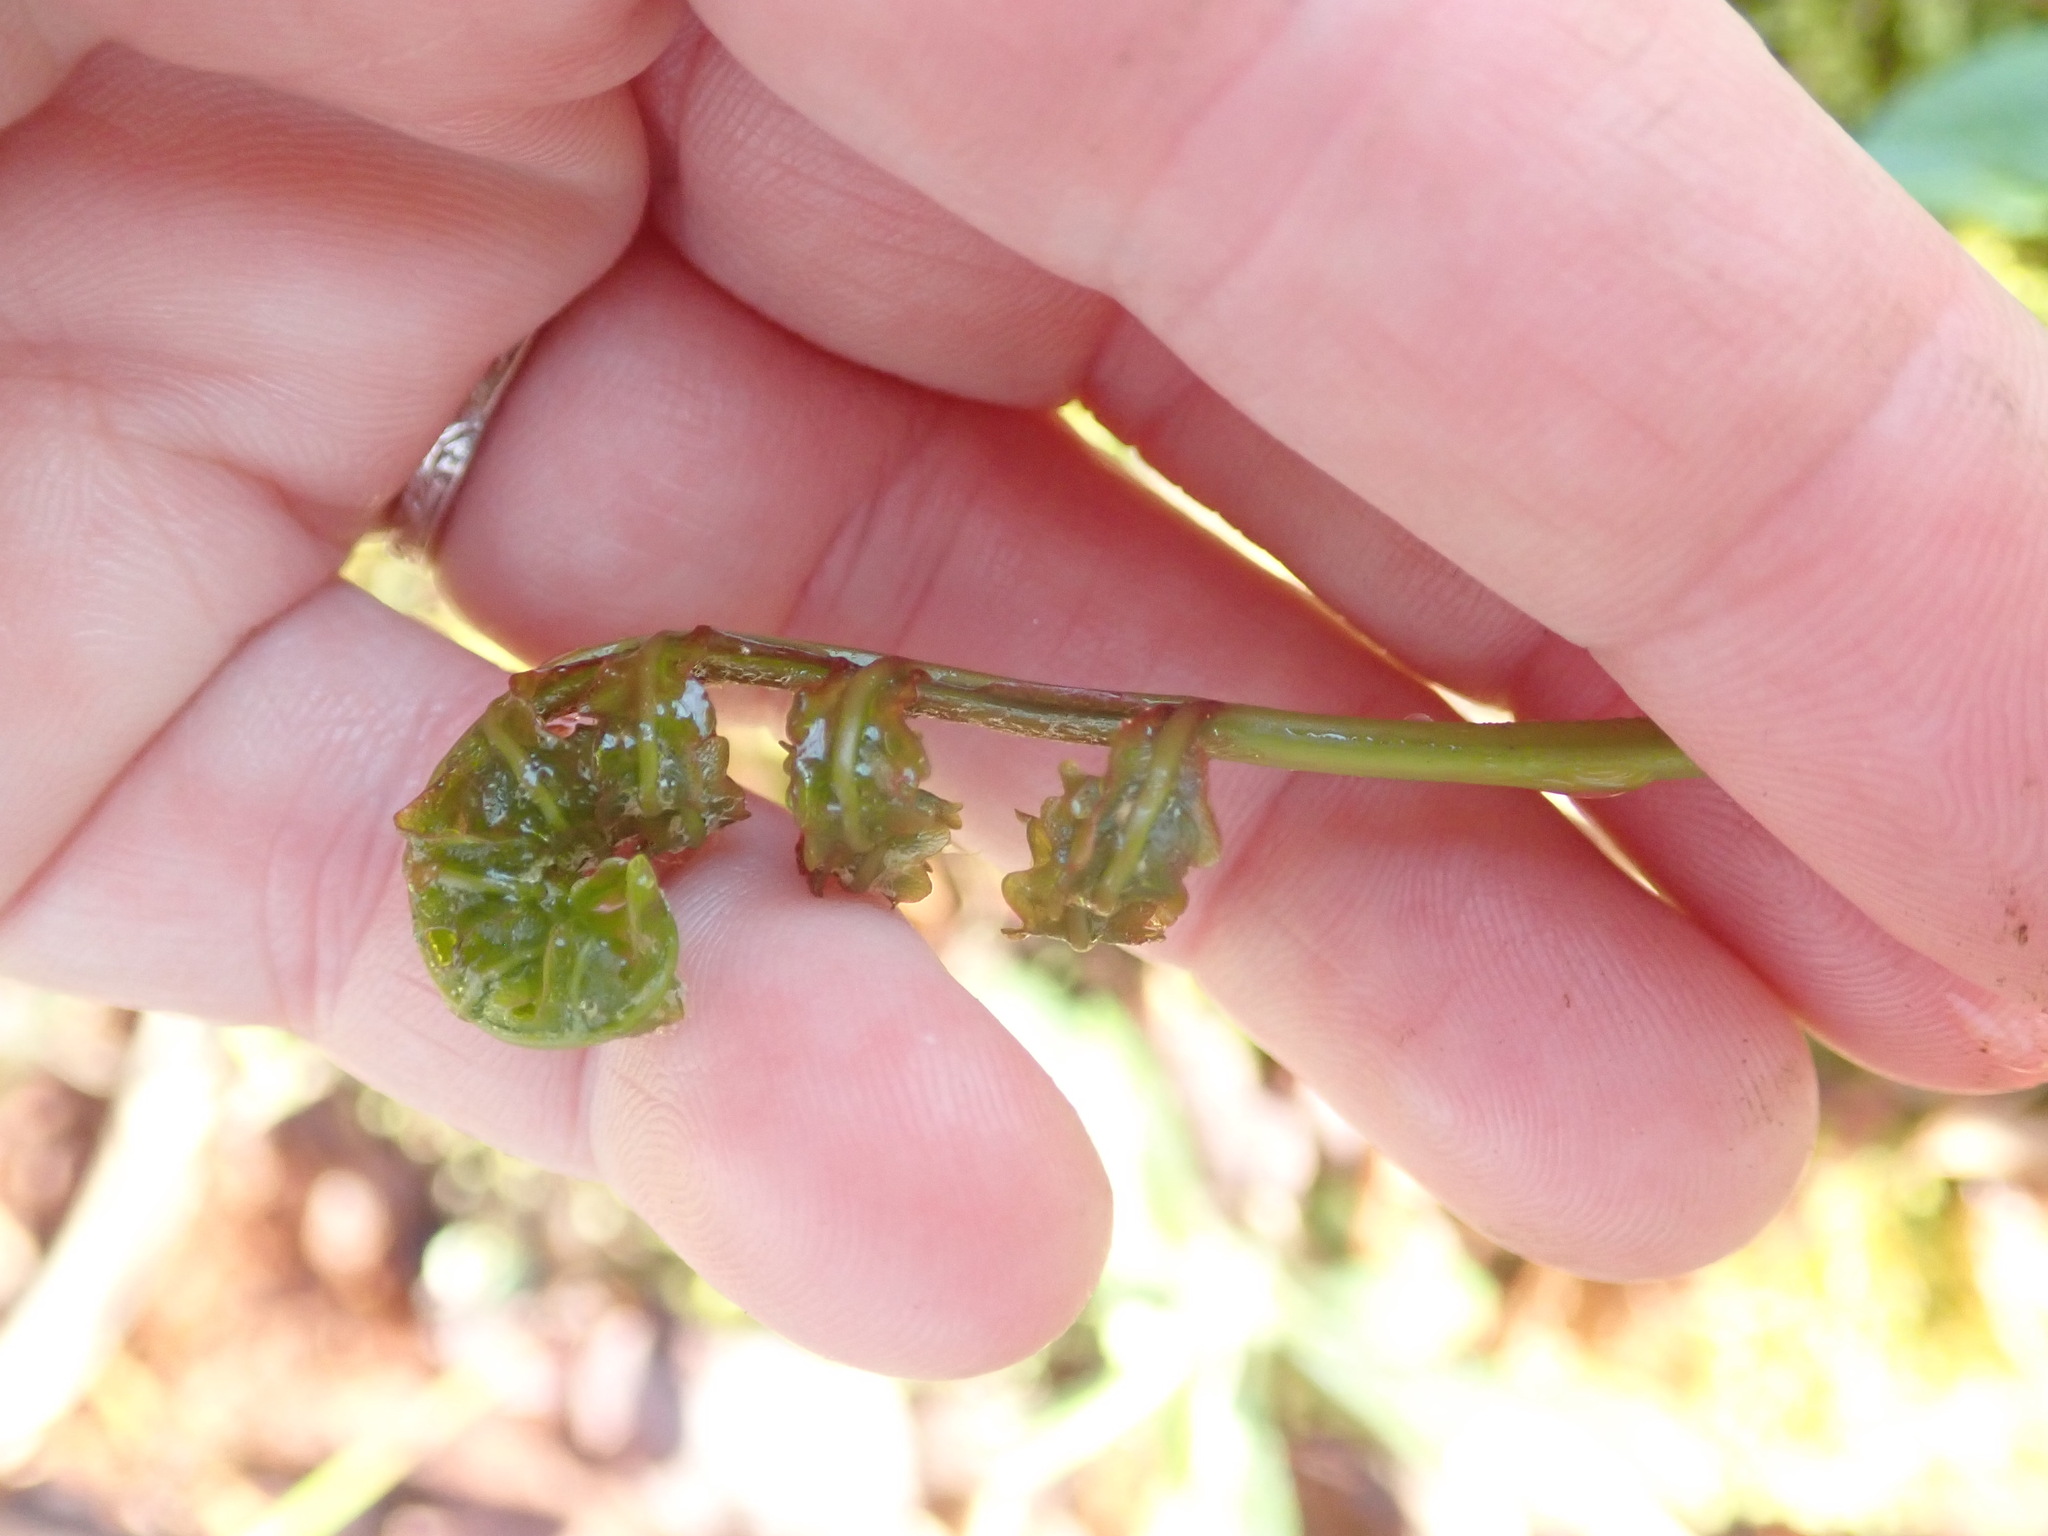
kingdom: Plantae
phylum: Tracheophyta
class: Polypodiopsida
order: Polypodiales
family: Onocleaceae
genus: Onoclea
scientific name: Onoclea sensibilis
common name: Sensitive fern
